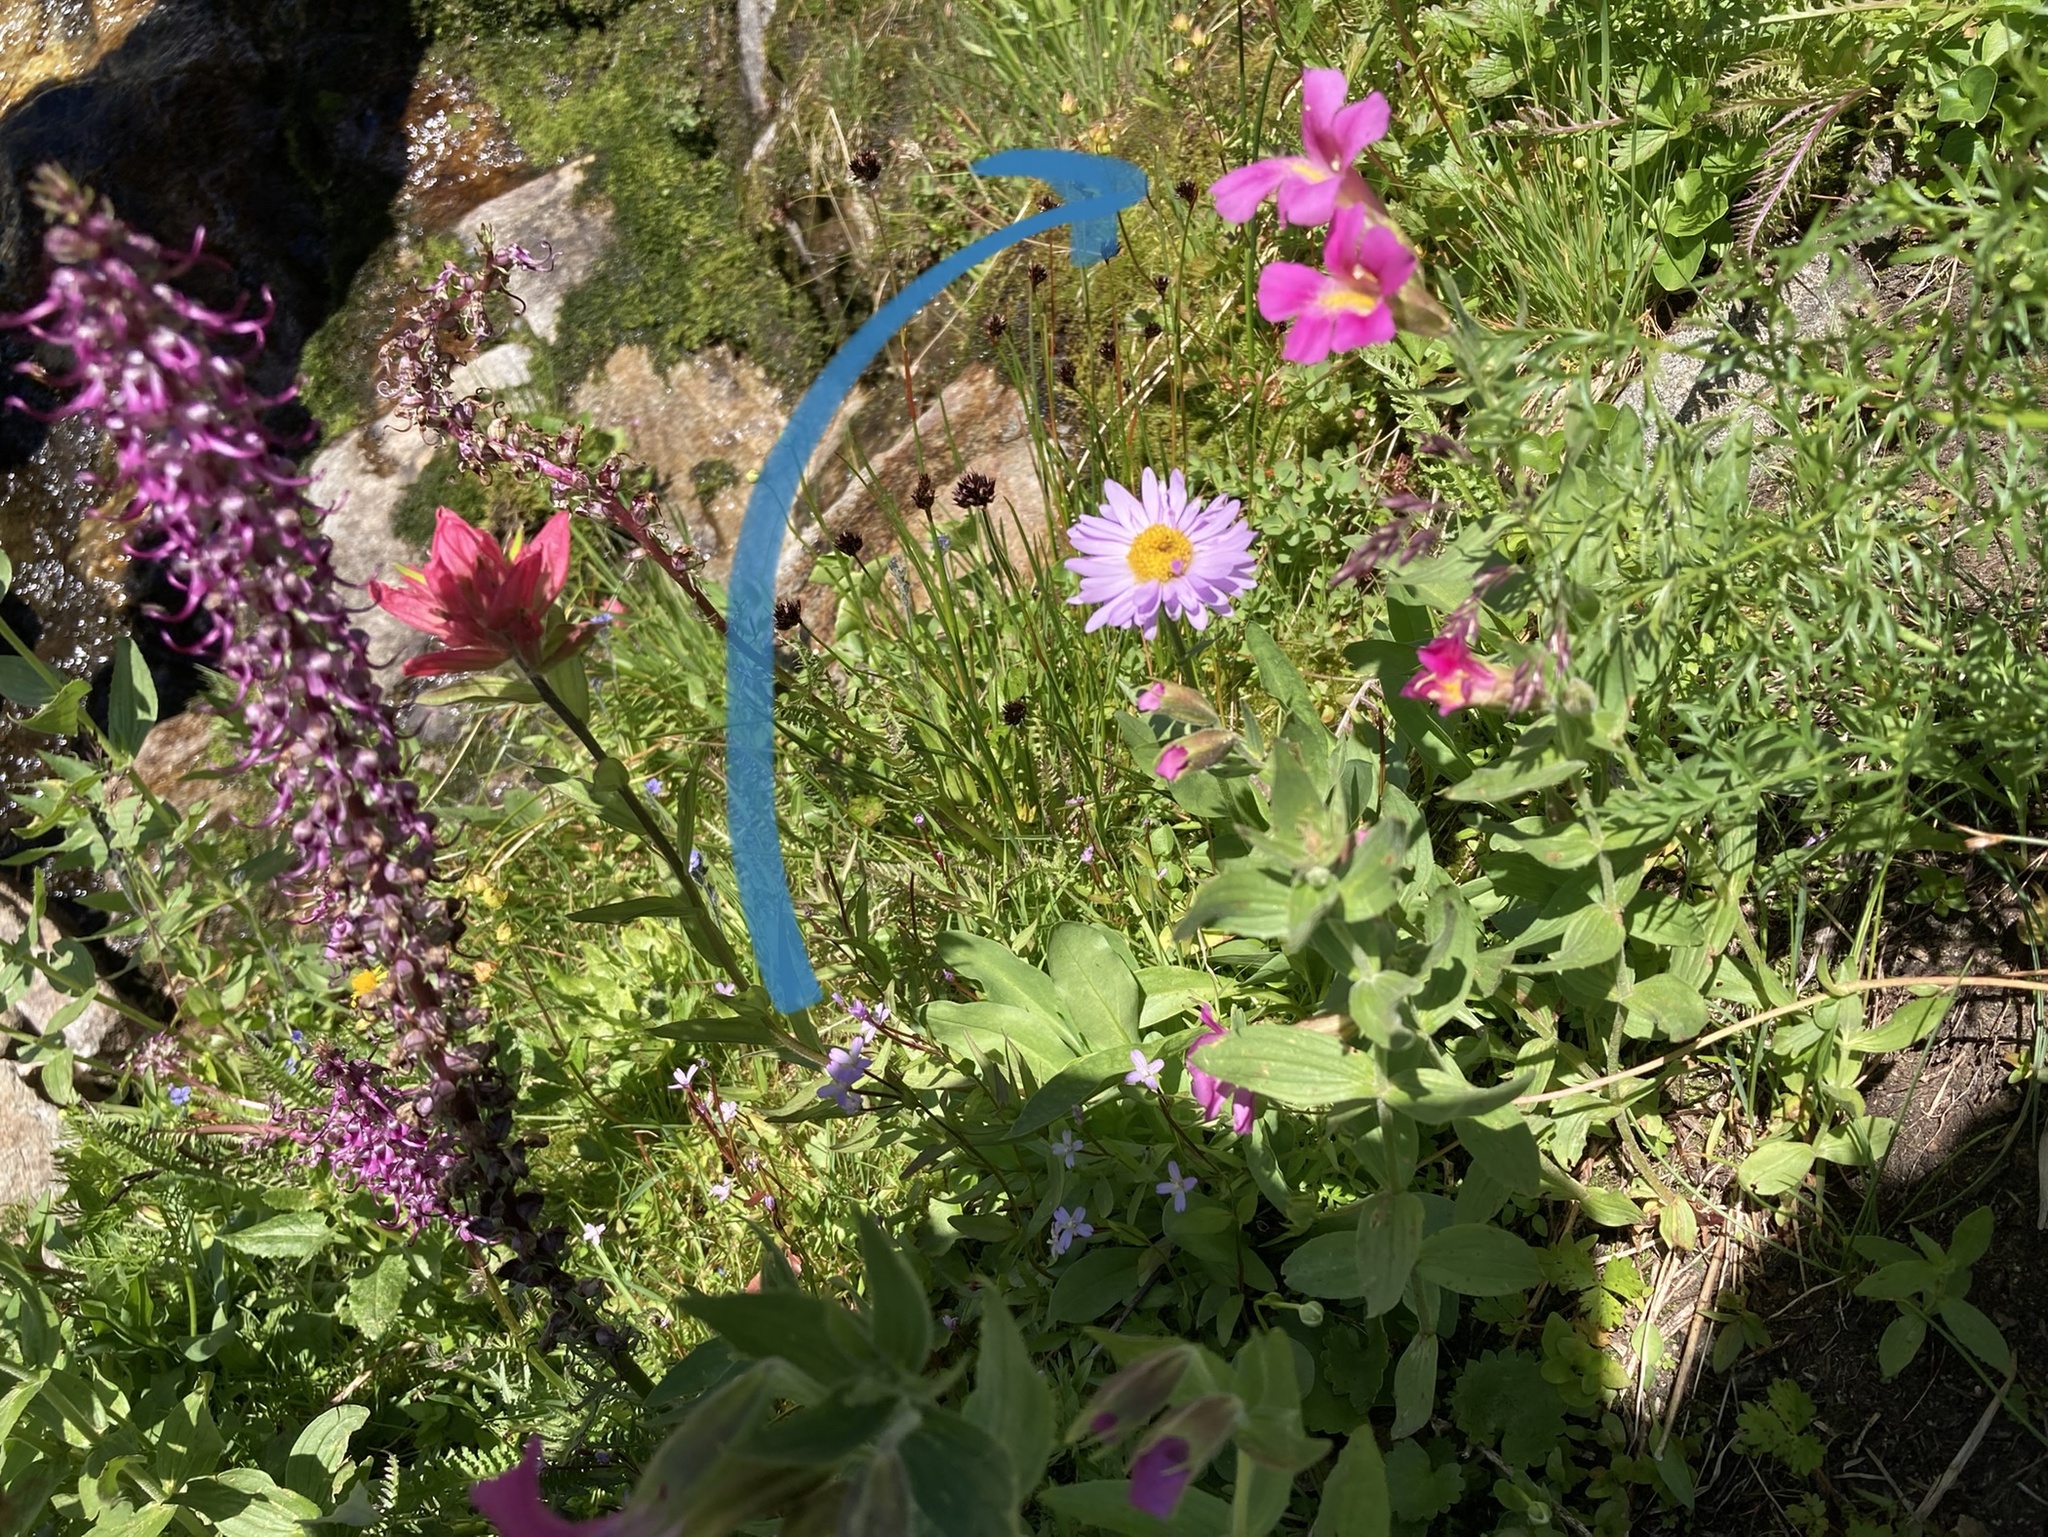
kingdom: Plantae
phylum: Tracheophyta
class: Magnoliopsida
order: Lamiales
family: Phrymaceae
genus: Erythranthe
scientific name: Erythranthe lewisii
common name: Lewis's monkey-flower
